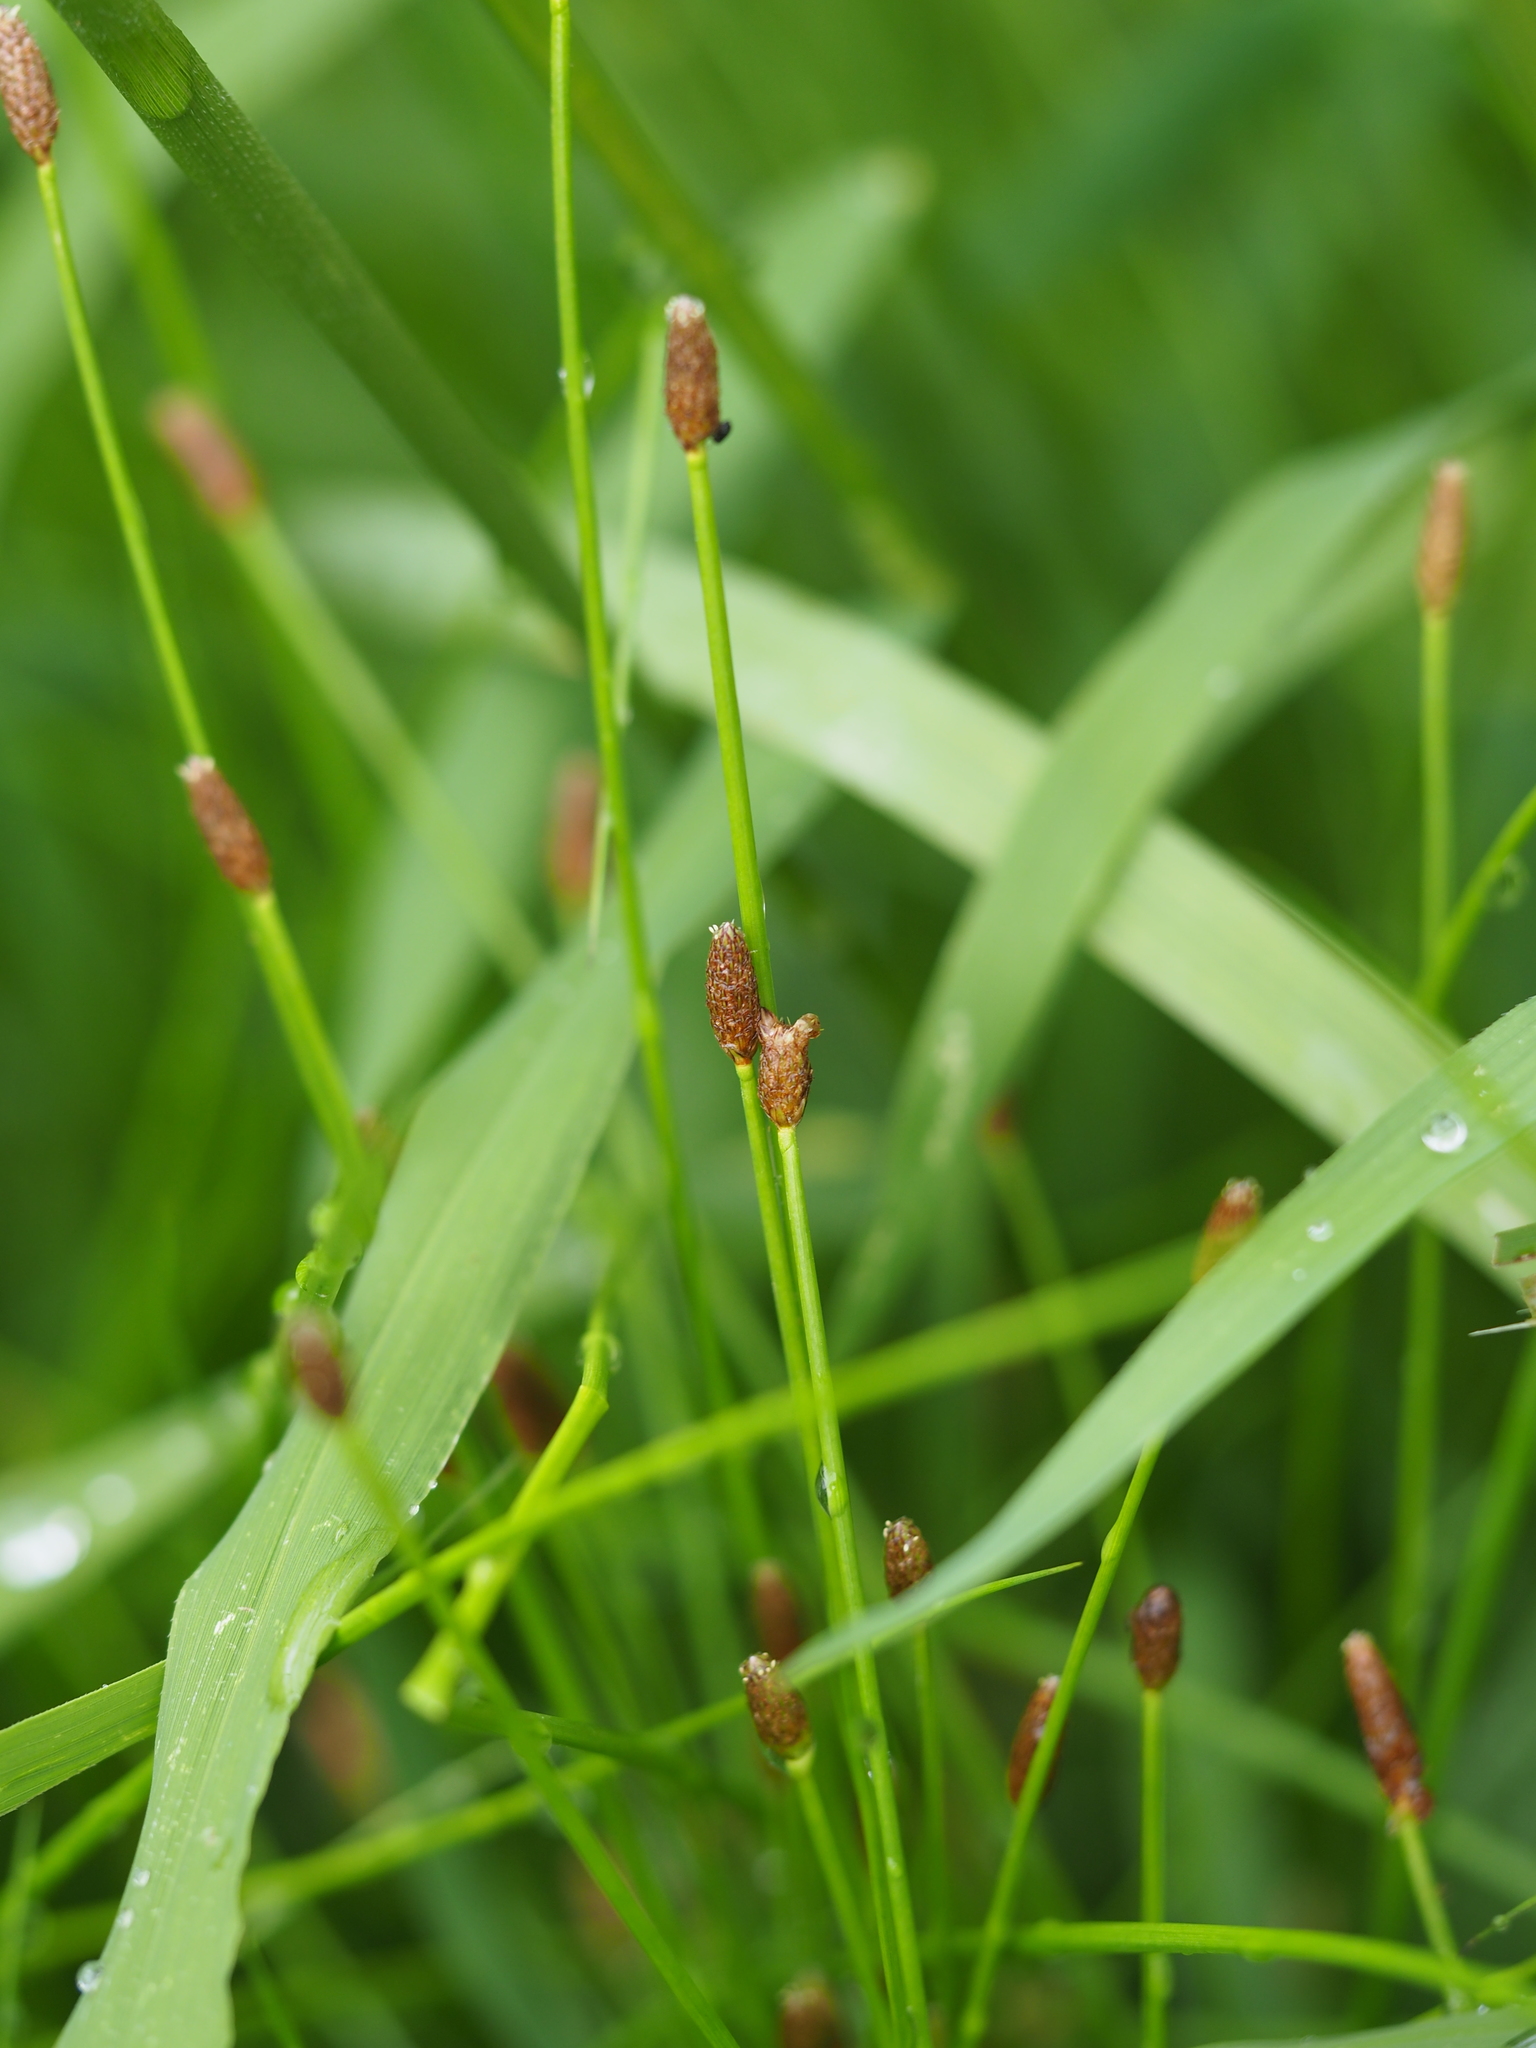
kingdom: Plantae
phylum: Tracheophyta
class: Liliopsida
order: Poales
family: Cyperaceae
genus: Eleocharis
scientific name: Eleocharis ovata
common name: Oval spike-rush
